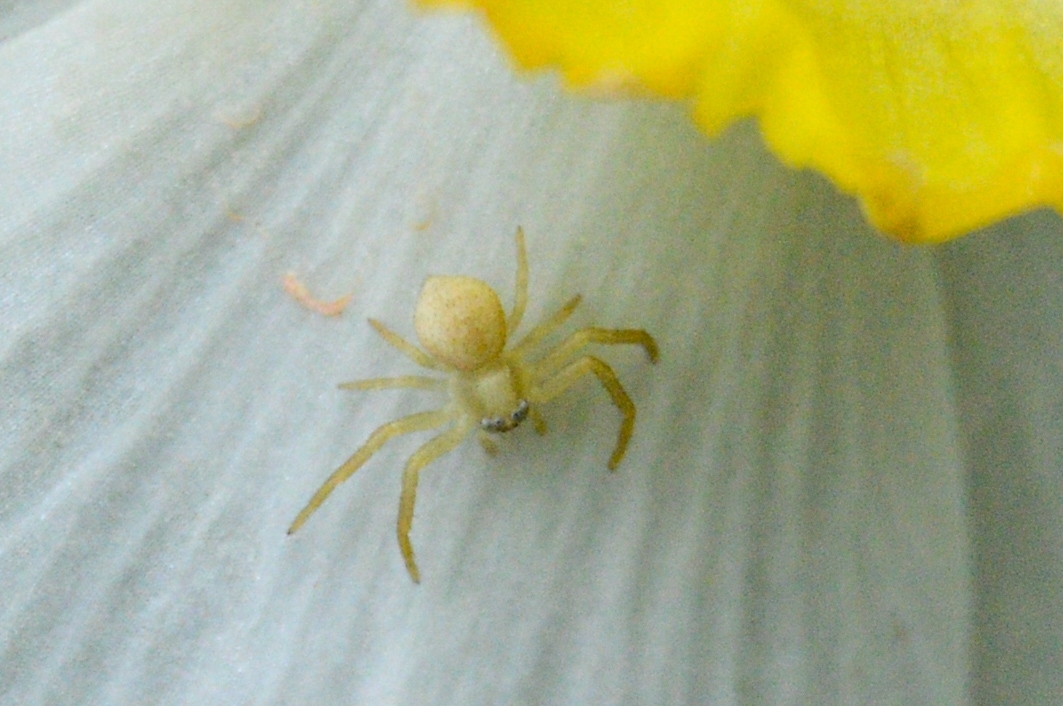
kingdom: Animalia
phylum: Arthropoda
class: Arachnida
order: Araneae
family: Thomisidae
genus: Misumena
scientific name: Misumena vatia
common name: Goldenrod crab spider
